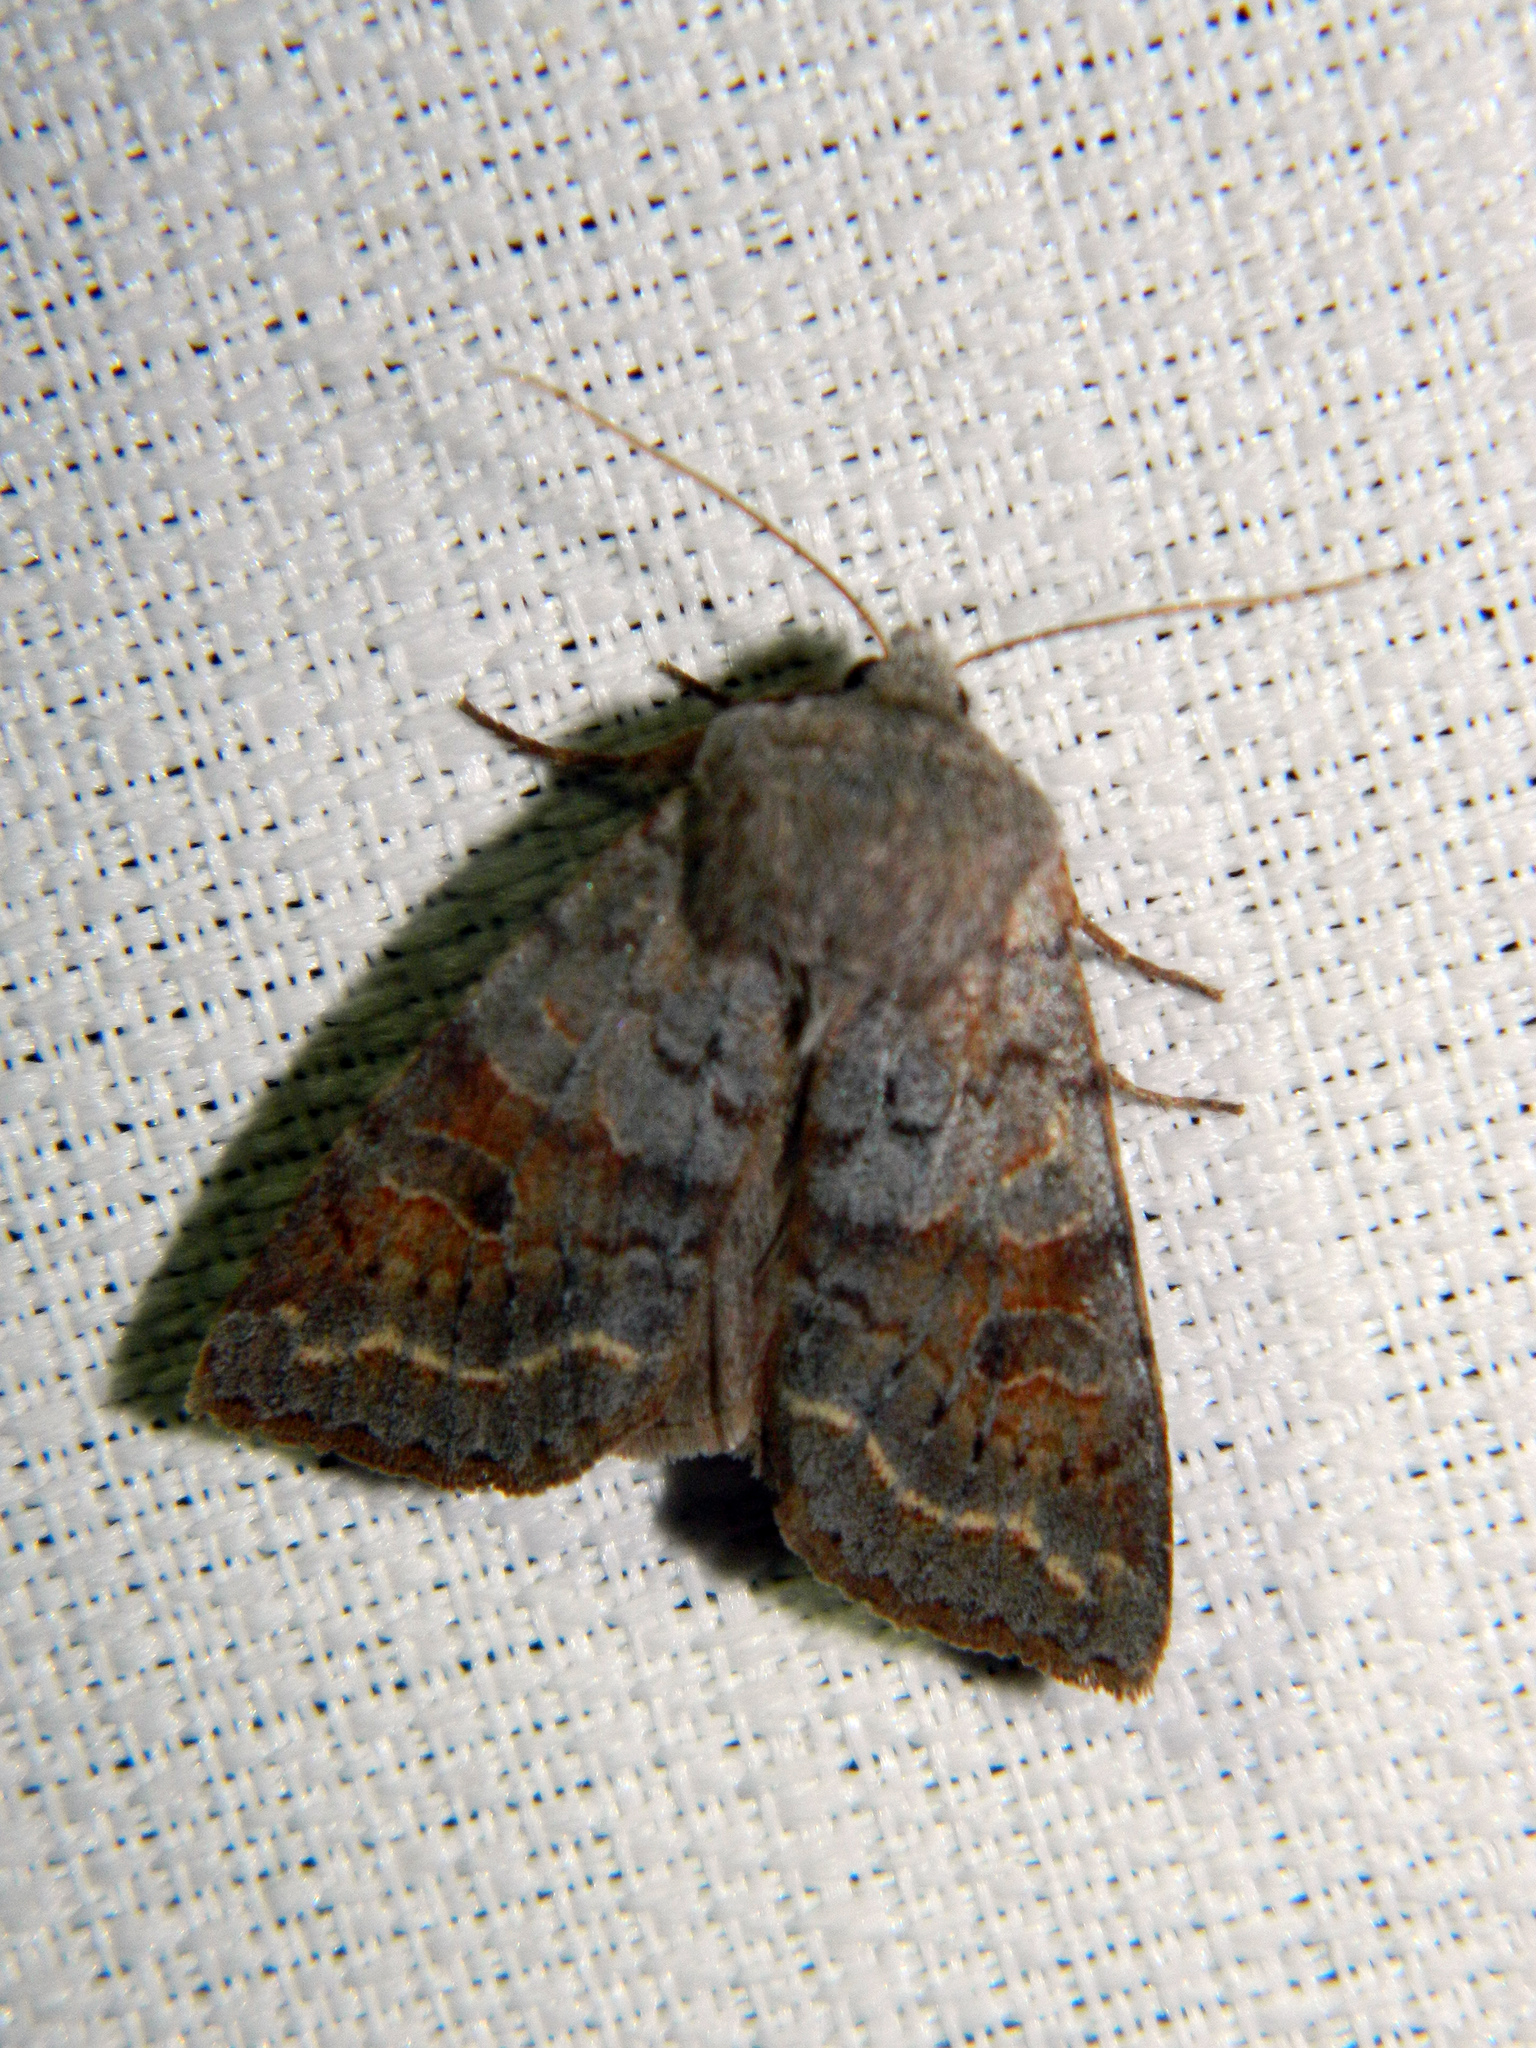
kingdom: Animalia
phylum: Arthropoda
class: Insecta
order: Lepidoptera
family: Noctuidae
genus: Orthosia
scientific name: Orthosia revicta
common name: Rusty whitesided caterpillar
